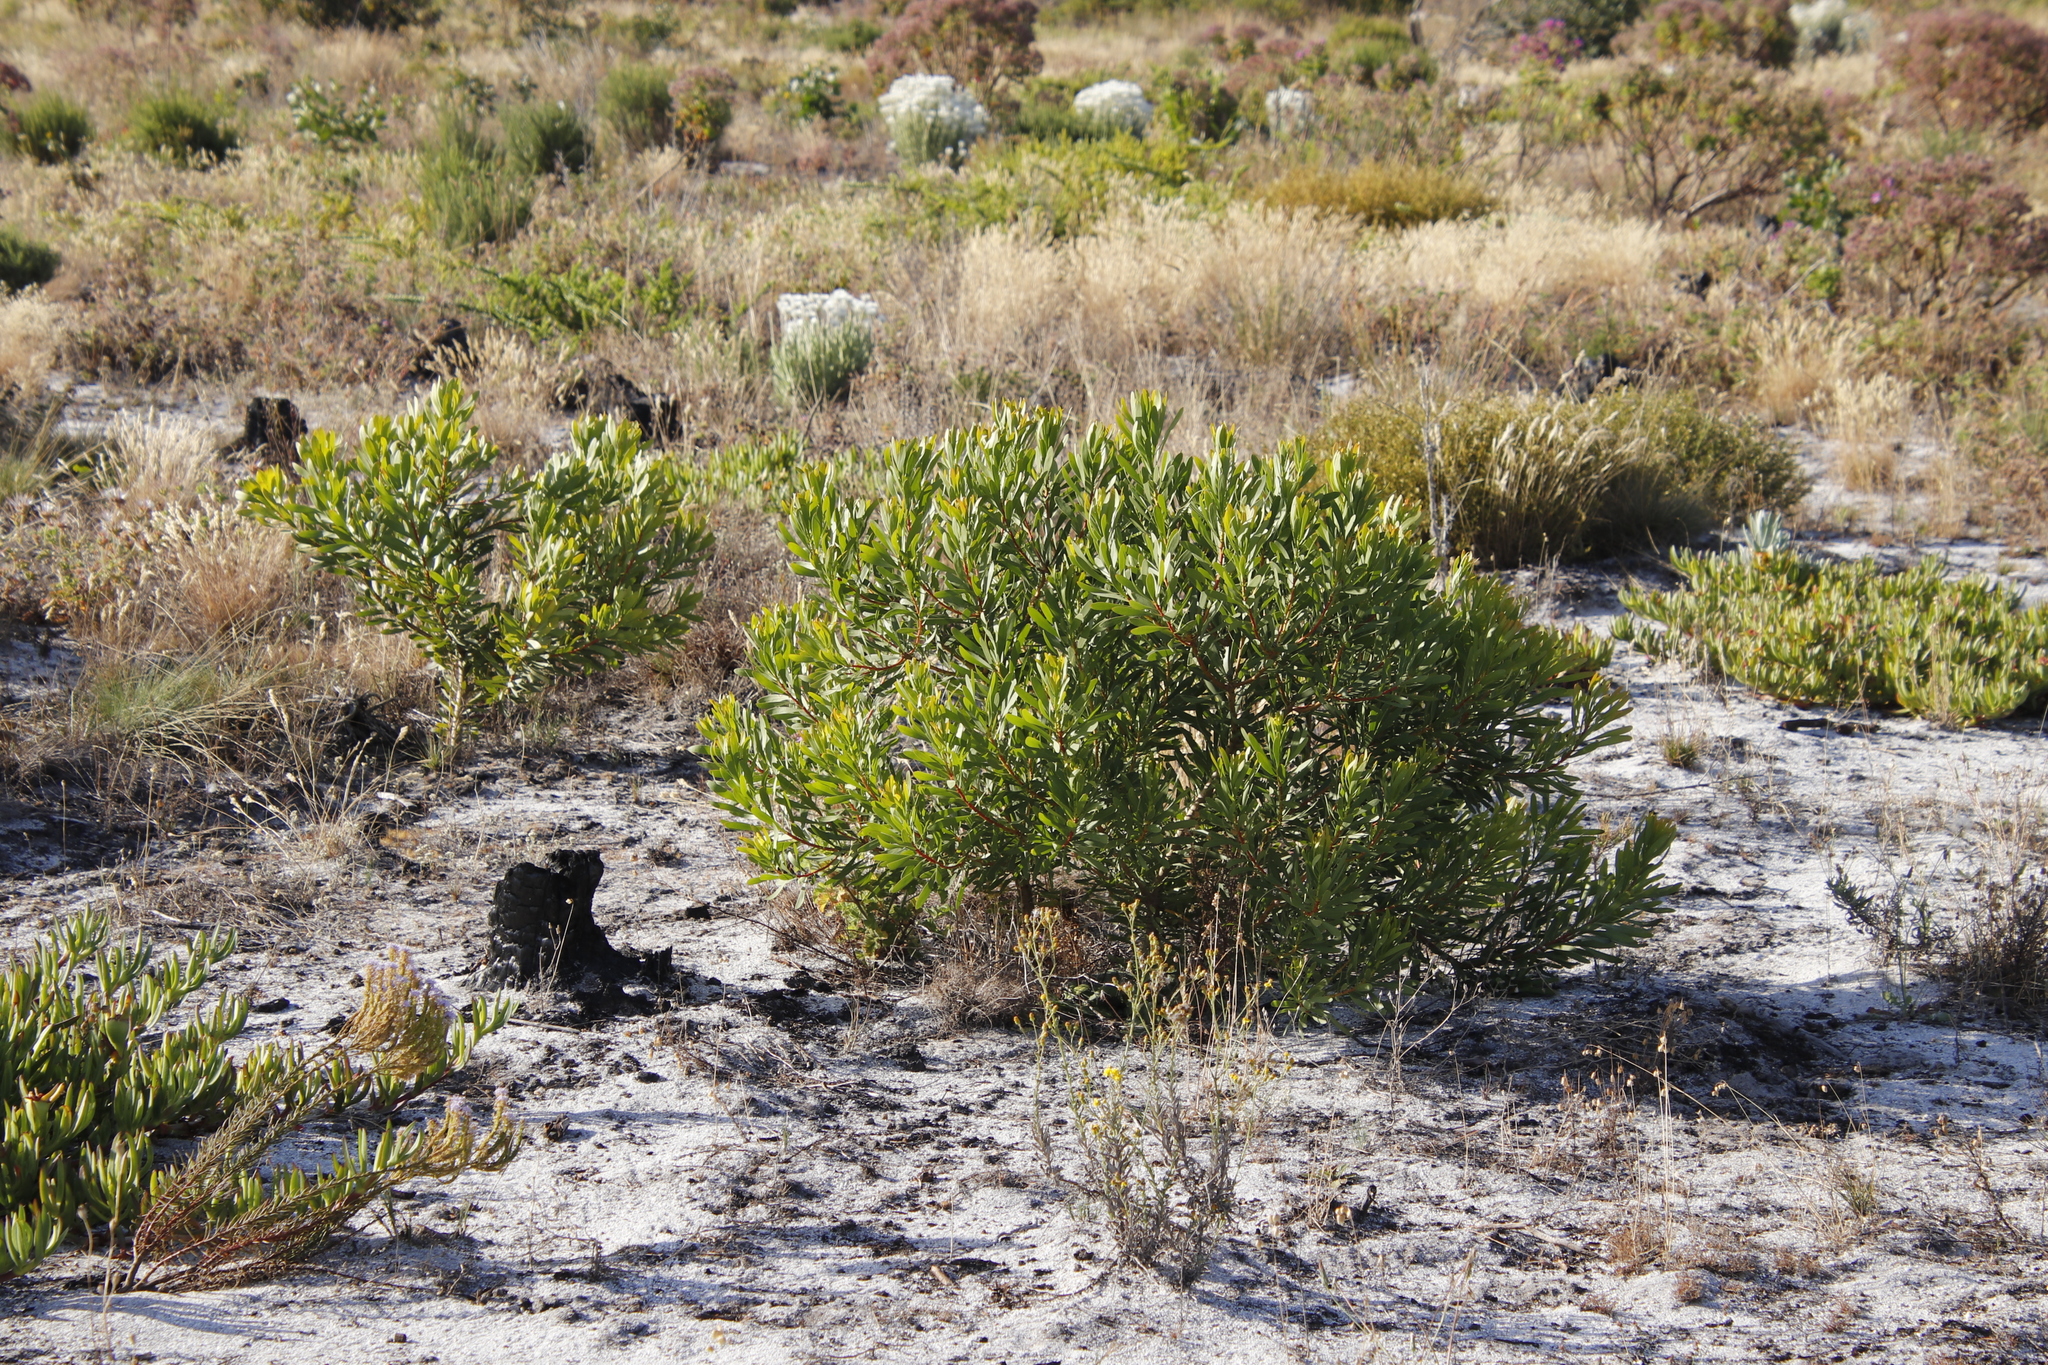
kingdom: Plantae
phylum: Tracheophyta
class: Magnoliopsida
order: Proteales
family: Proteaceae
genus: Protea
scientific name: Protea repens
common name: Sugarbush
